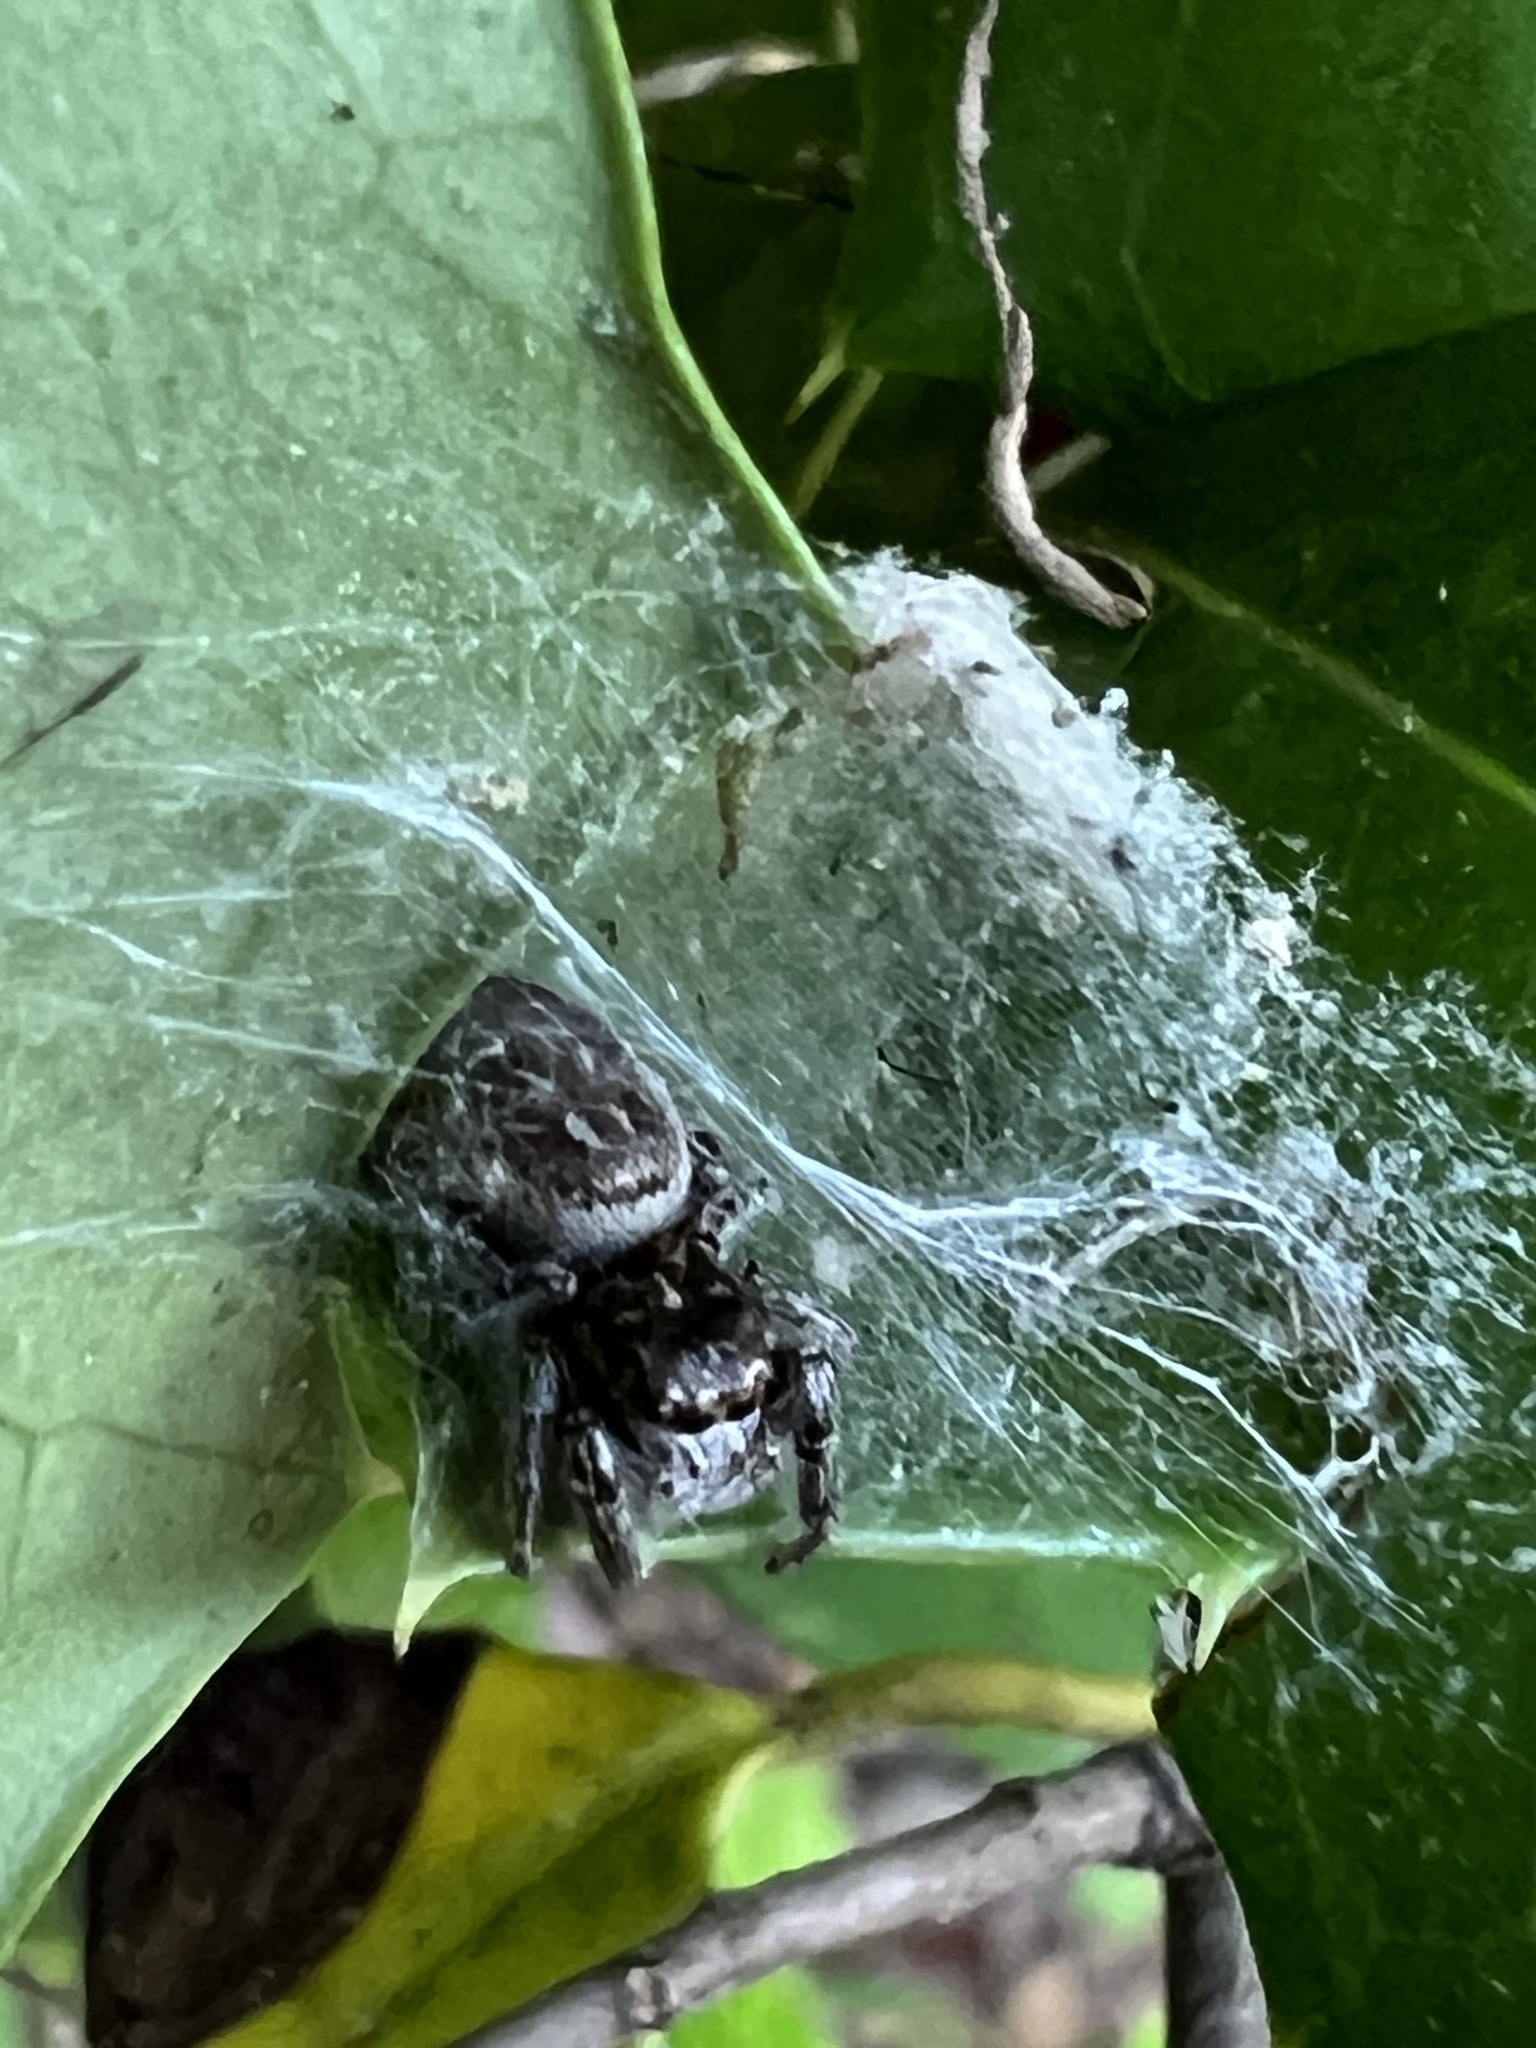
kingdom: Animalia
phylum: Arthropoda
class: Arachnida
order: Araneae
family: Salticidae
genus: Eris
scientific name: Eris militaris
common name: Bronze jumper
